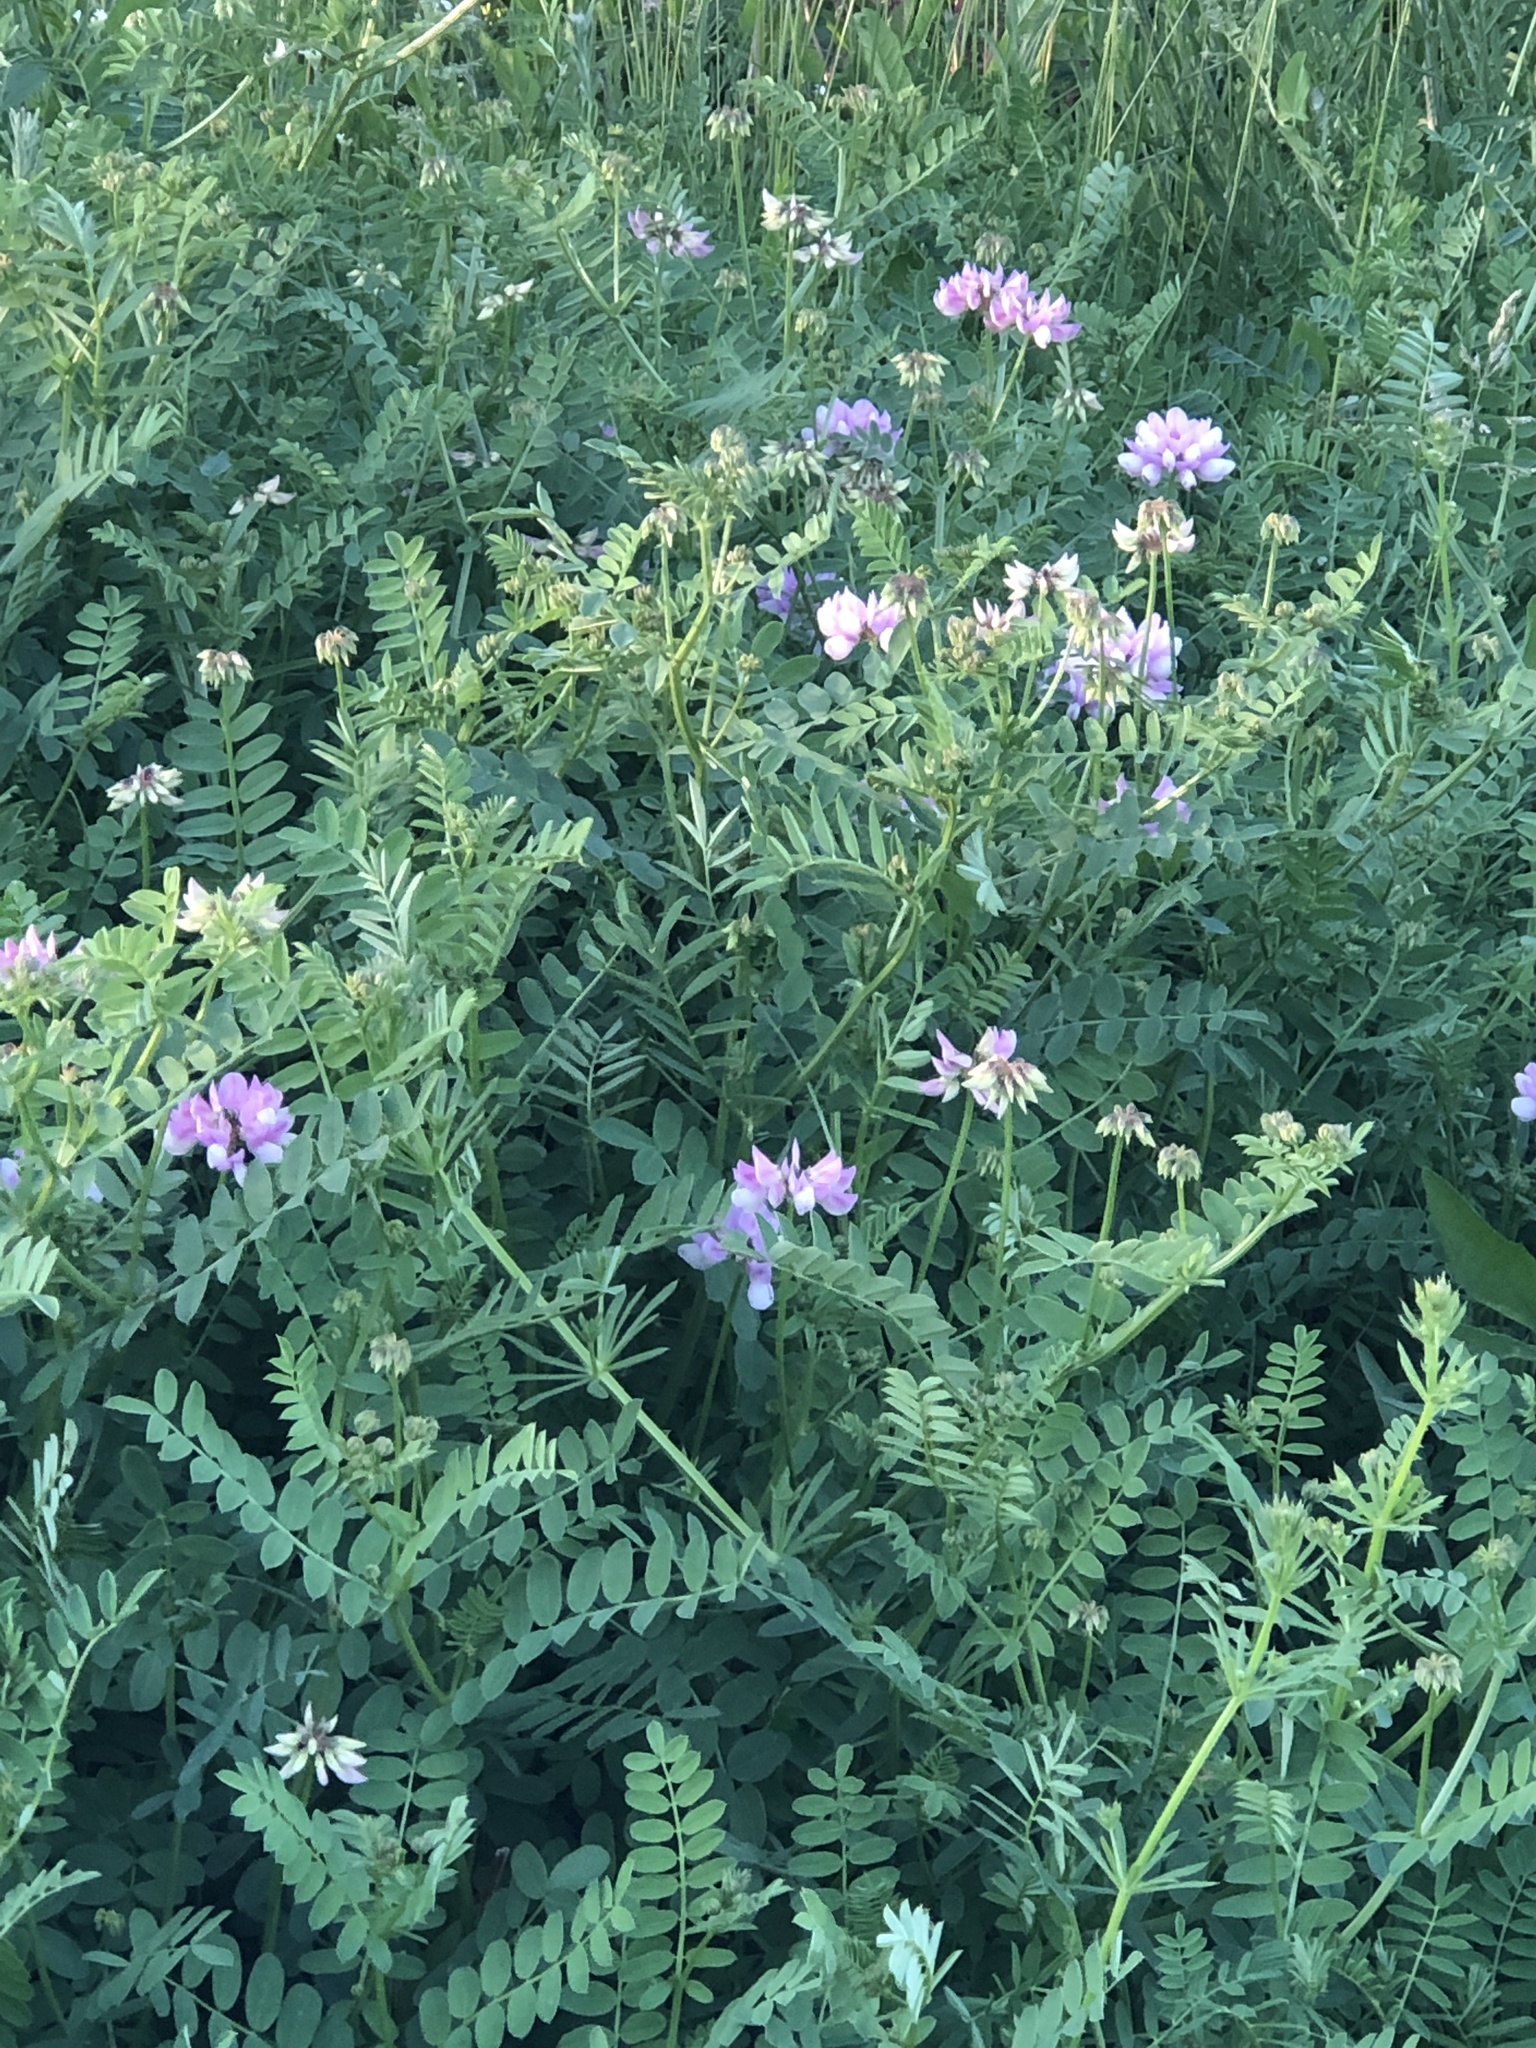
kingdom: Plantae
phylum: Tracheophyta
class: Magnoliopsida
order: Fabales
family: Fabaceae
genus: Coronilla
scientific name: Coronilla varia
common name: Crownvetch
